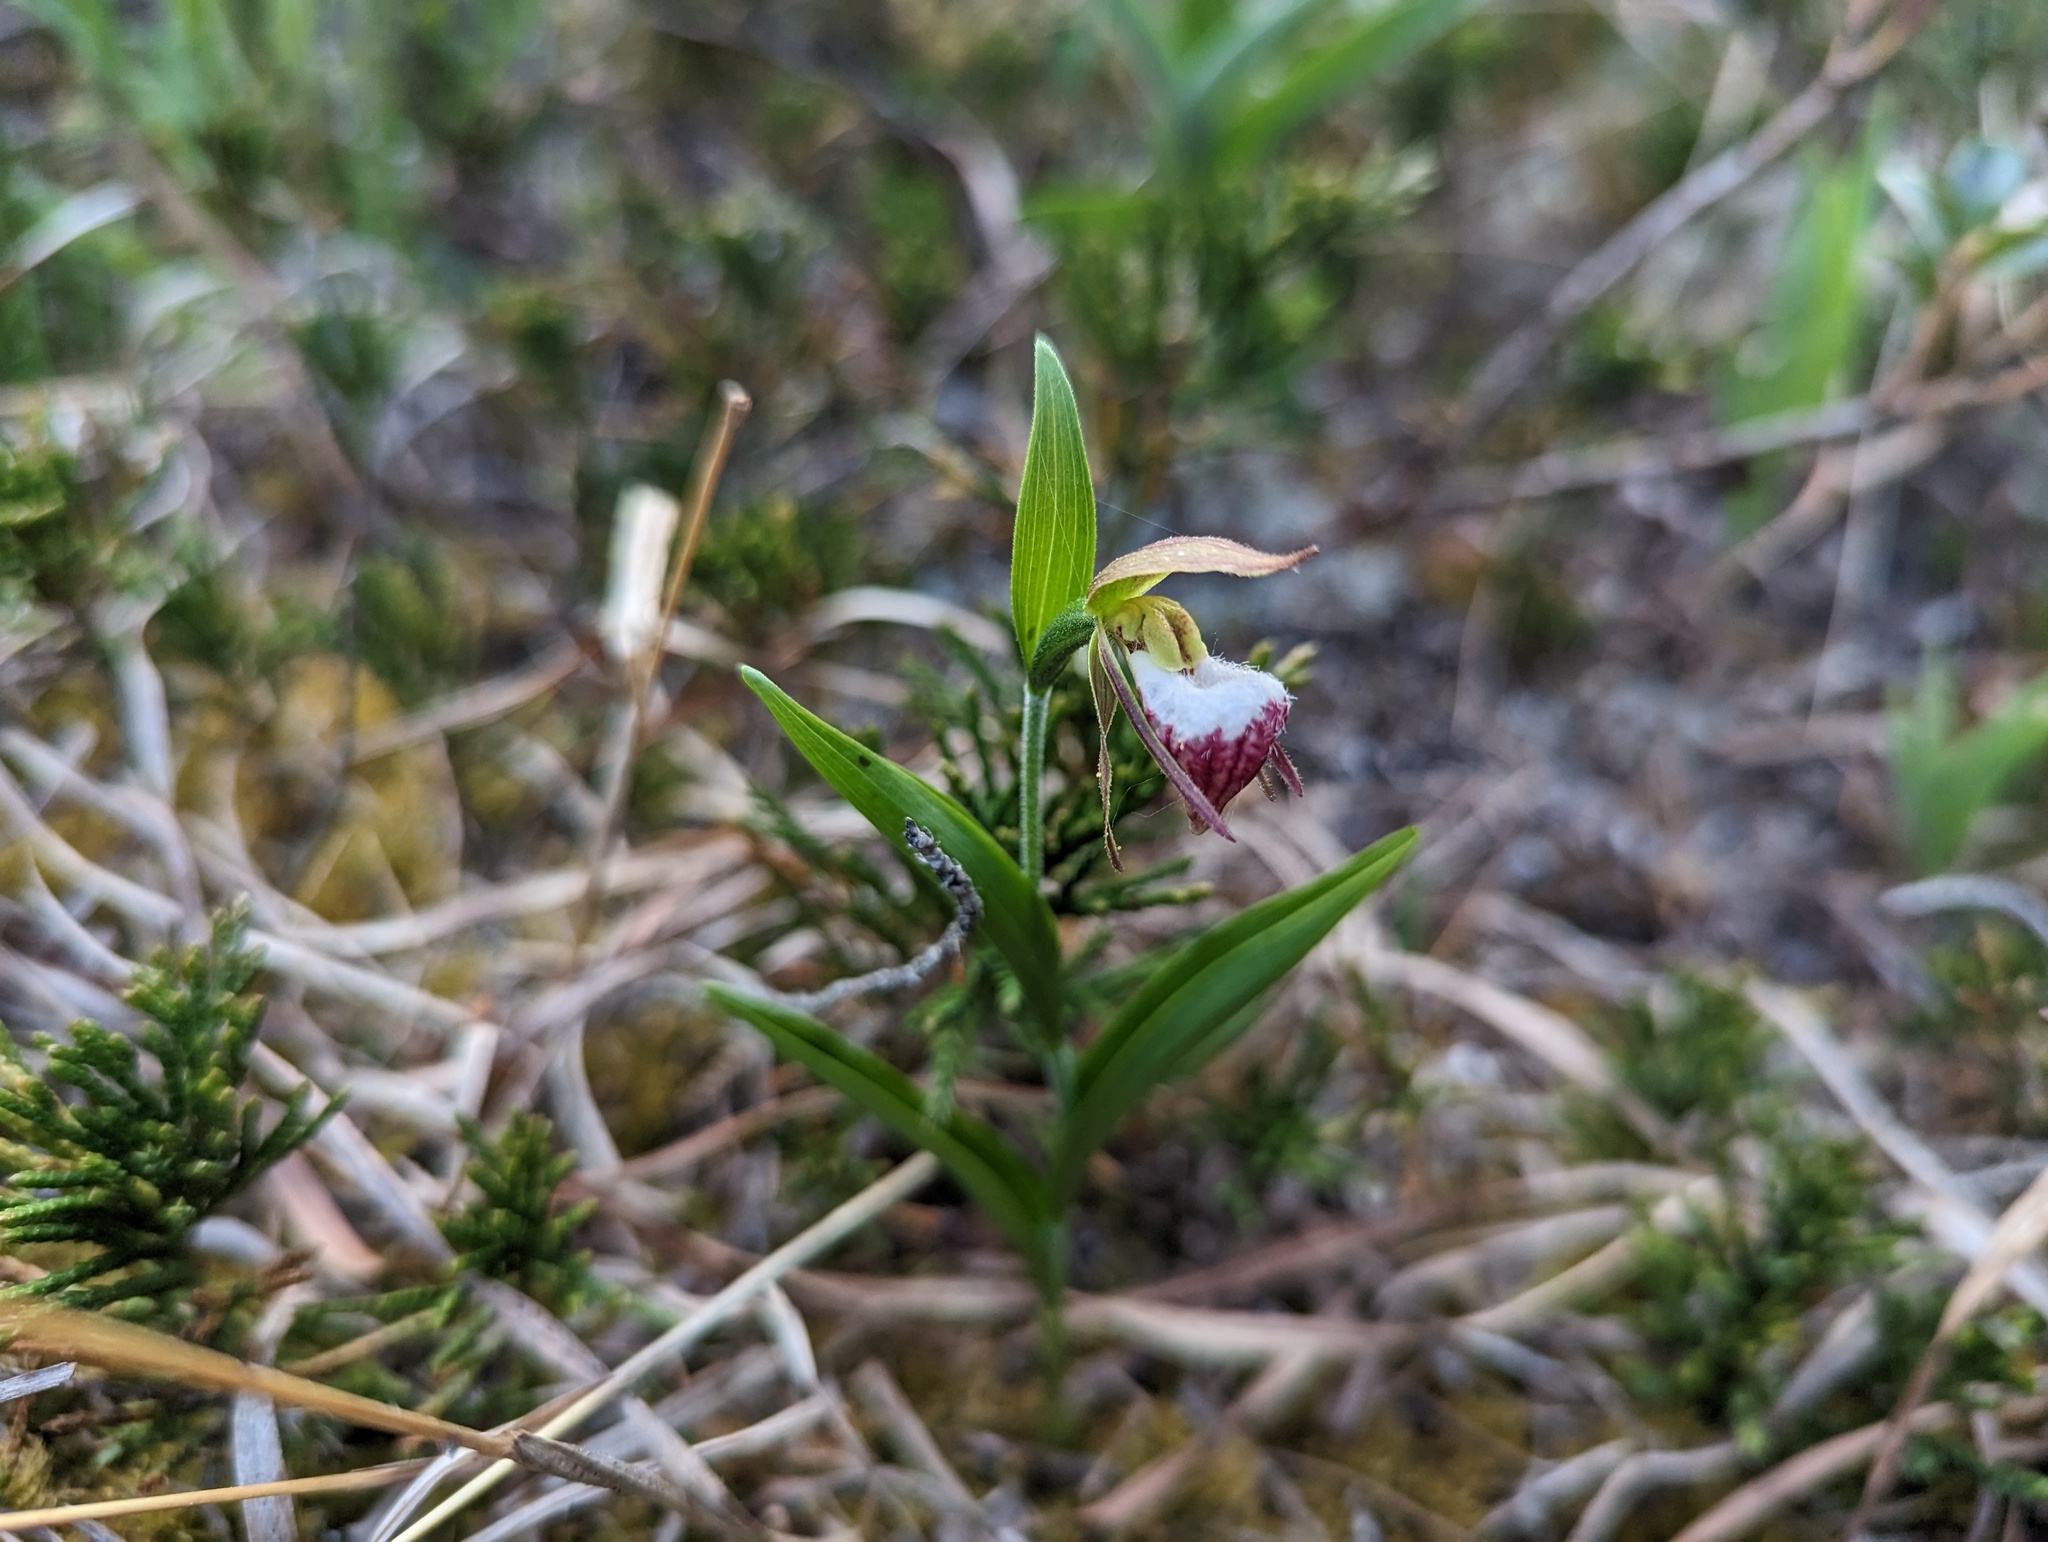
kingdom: Plantae
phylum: Tracheophyta
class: Liliopsida
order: Asparagales
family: Orchidaceae
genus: Cypripedium
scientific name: Cypripedium arietinum
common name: Ram's-head
